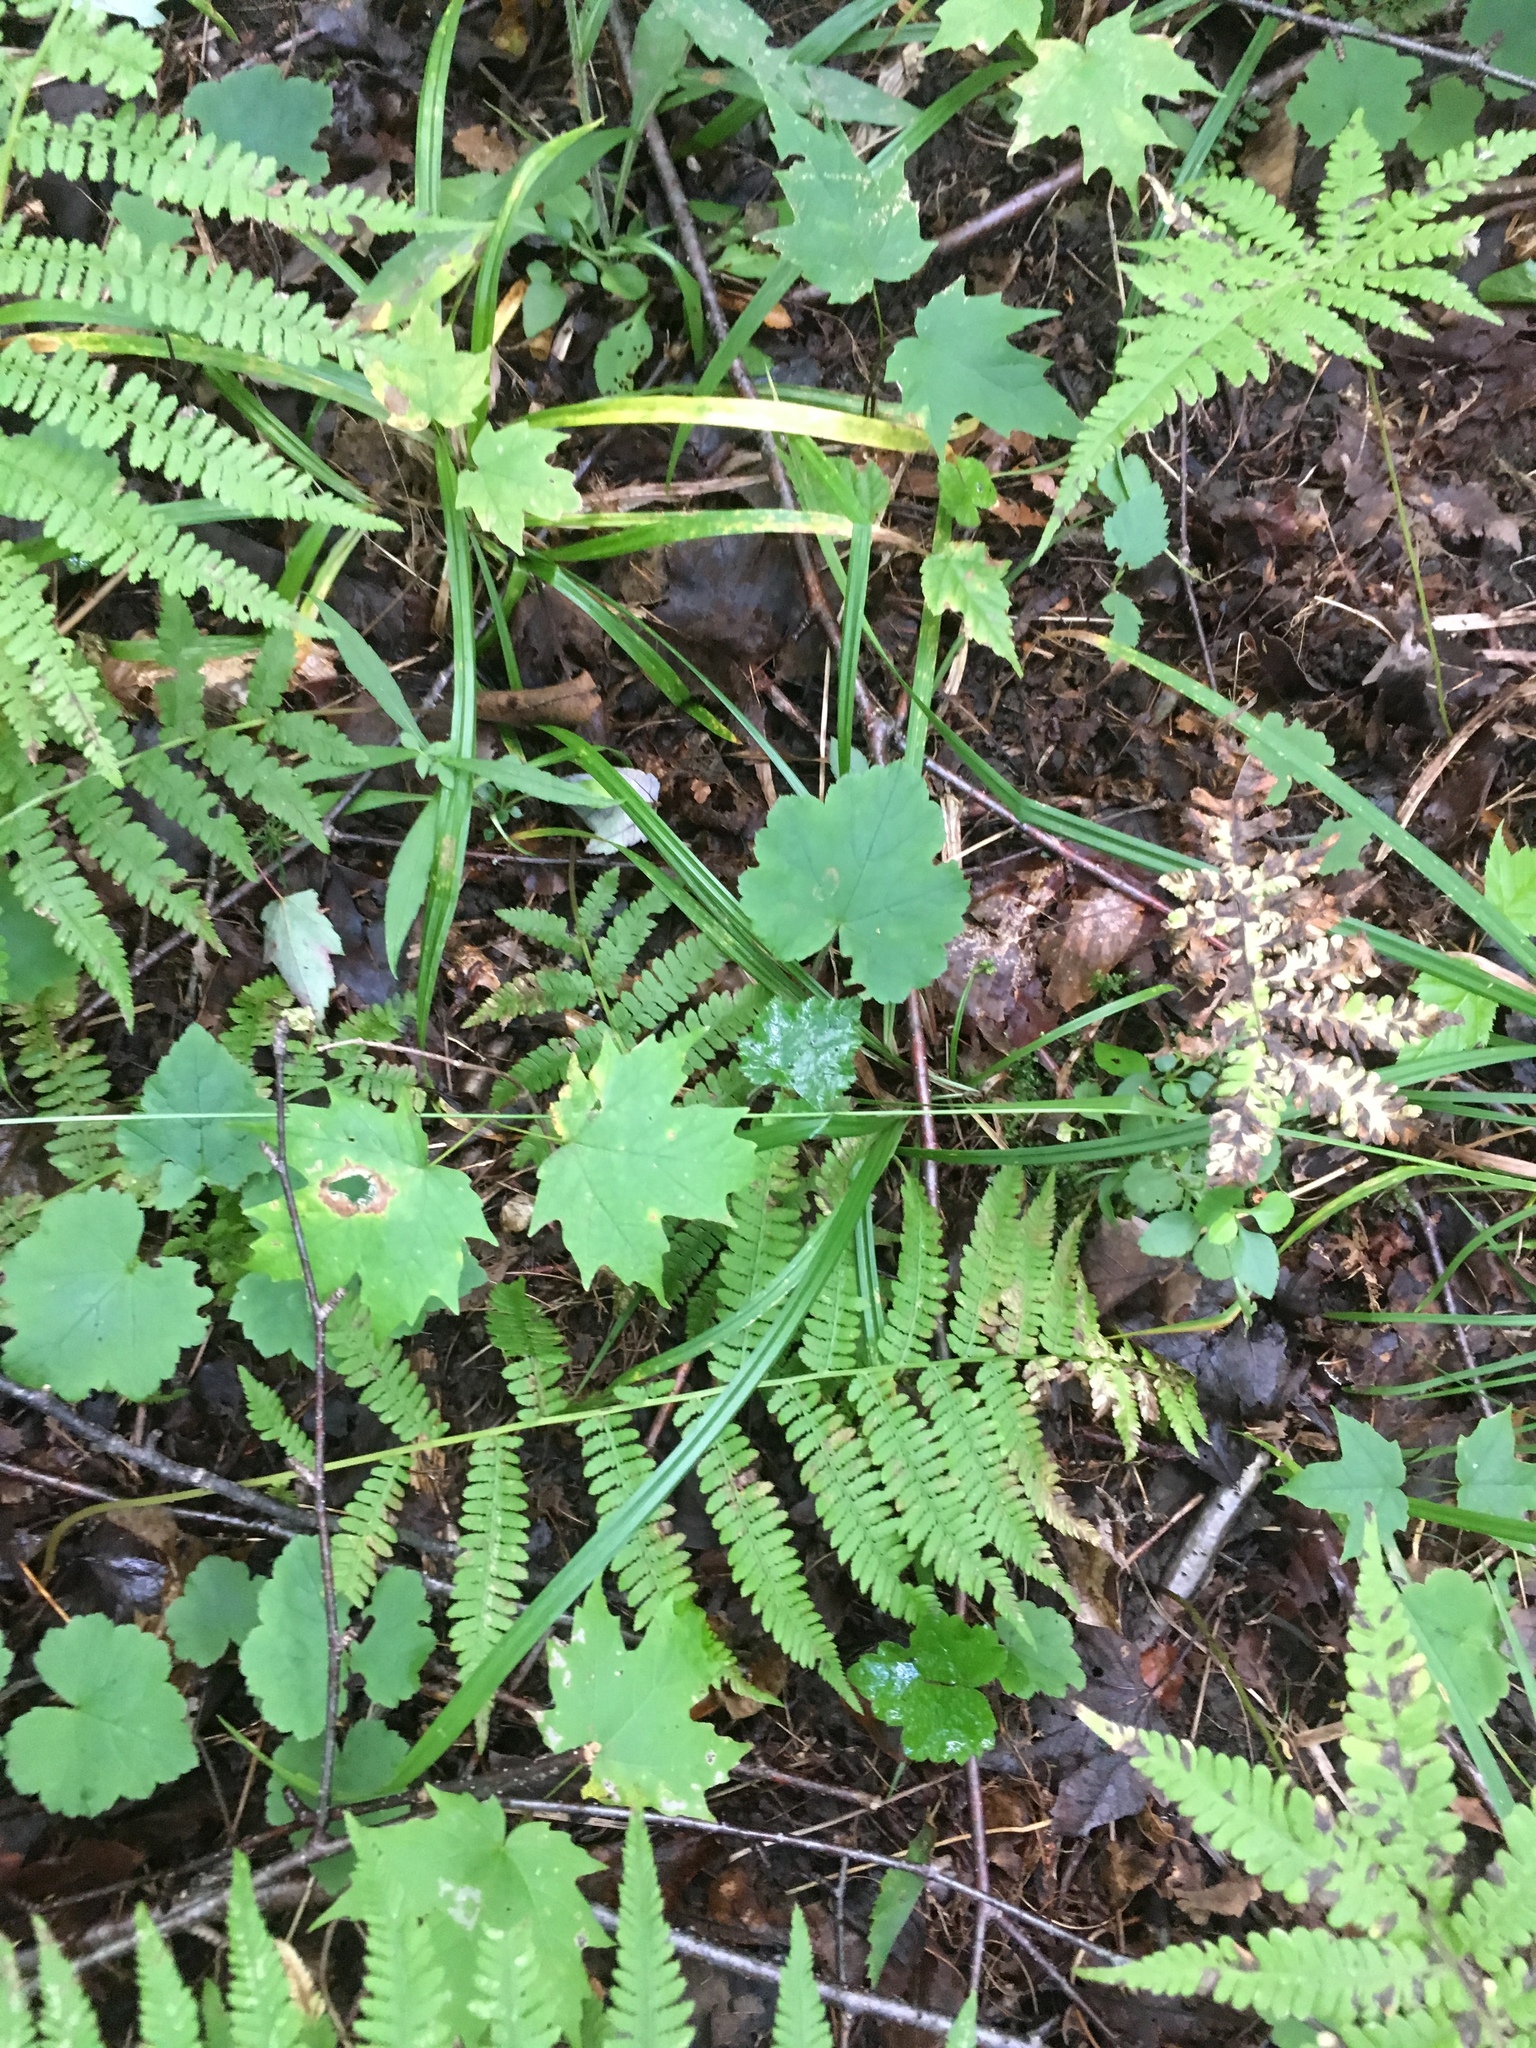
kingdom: Plantae
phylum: Tracheophyta
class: Magnoliopsida
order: Saxifragales
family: Saxifragaceae
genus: Tiarella
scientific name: Tiarella stolonifera
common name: Stoloniferous foamflower
